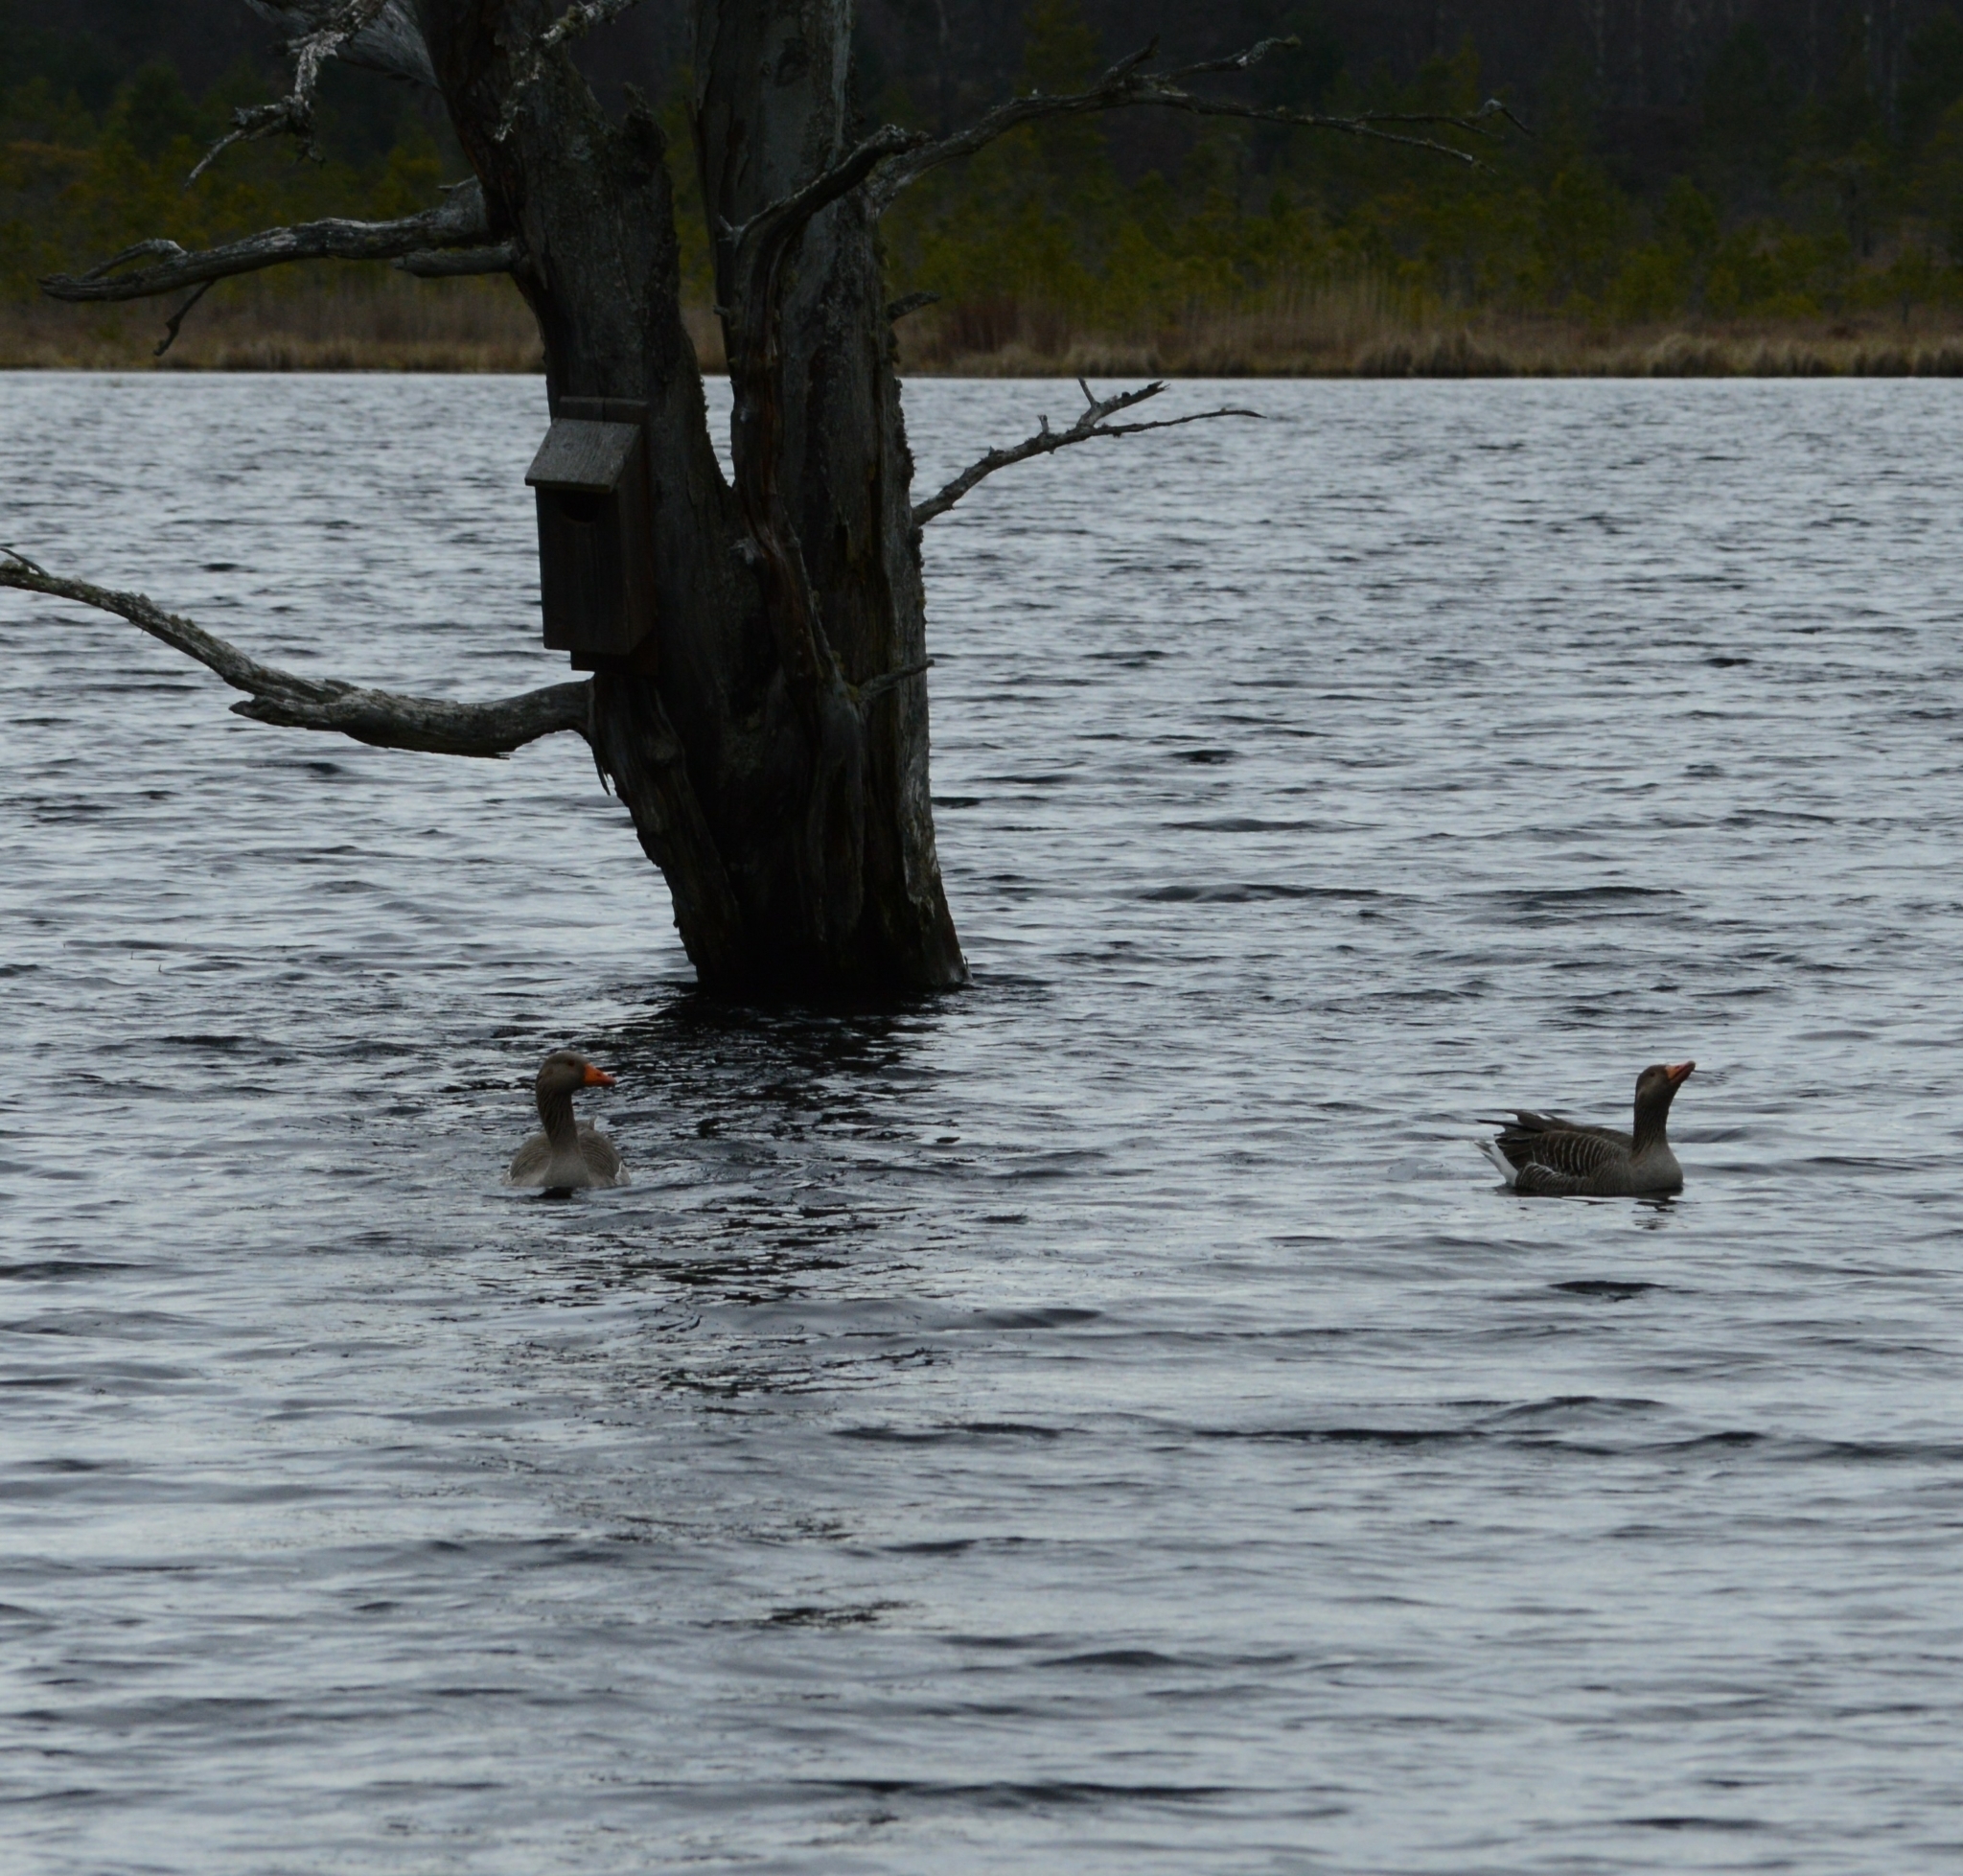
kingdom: Animalia
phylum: Chordata
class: Aves
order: Anseriformes
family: Anatidae
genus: Anser
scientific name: Anser anser
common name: Greylag goose
